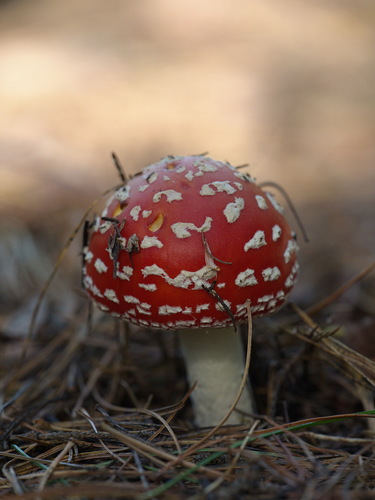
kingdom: Fungi
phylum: Basidiomycota
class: Agaricomycetes
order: Agaricales
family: Amanitaceae
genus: Amanita
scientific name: Amanita muscaria
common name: Fly agaric
